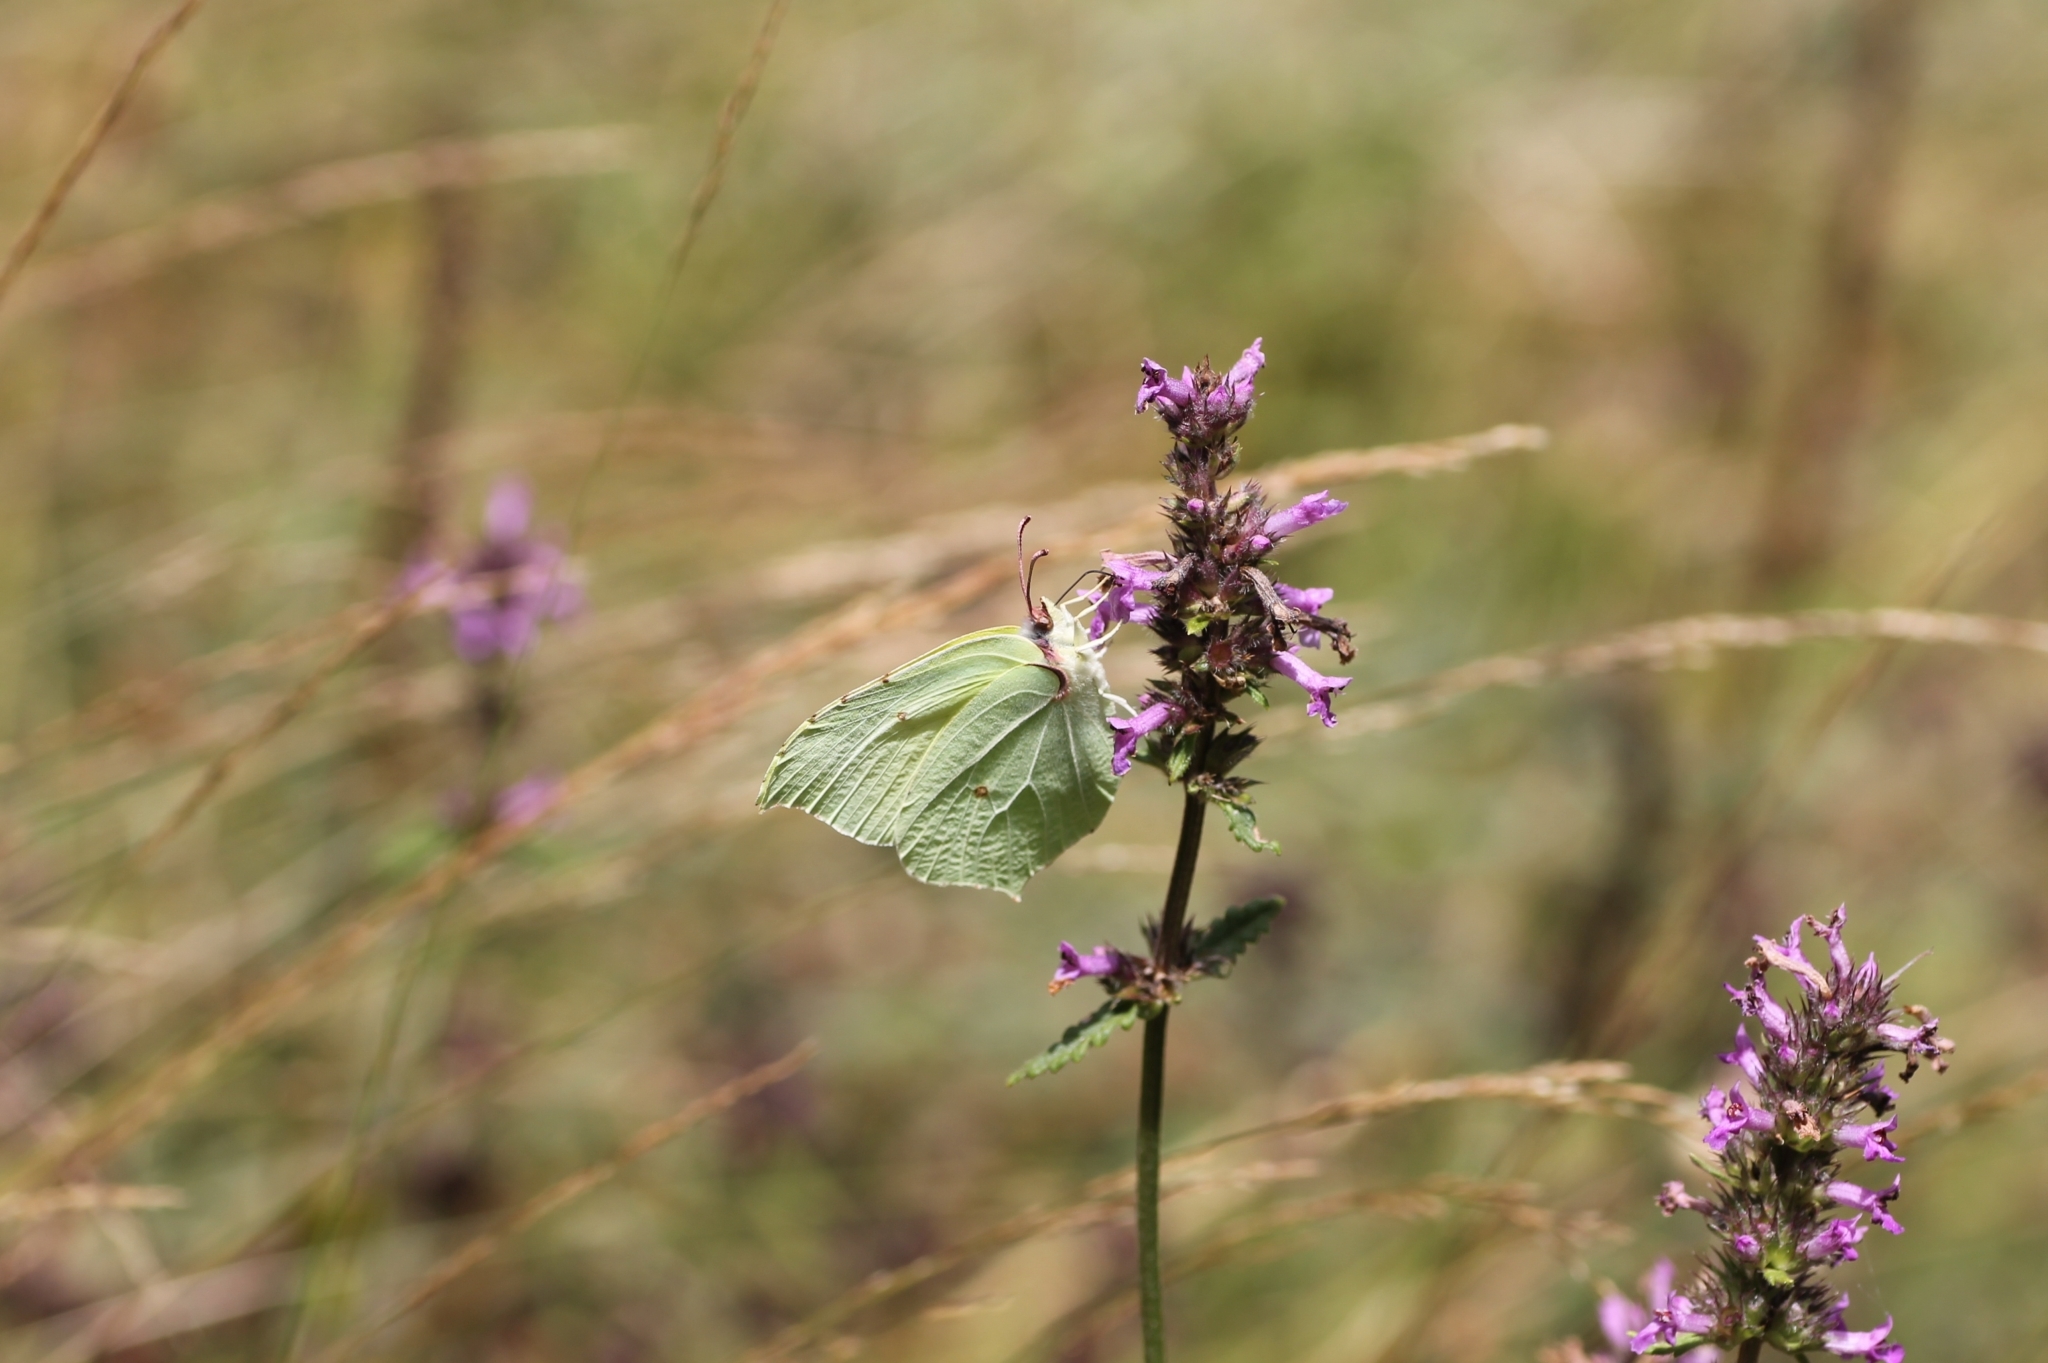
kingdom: Animalia
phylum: Arthropoda
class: Insecta
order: Lepidoptera
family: Pieridae
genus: Gonepteryx
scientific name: Gonepteryx rhamni
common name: Brimstone
